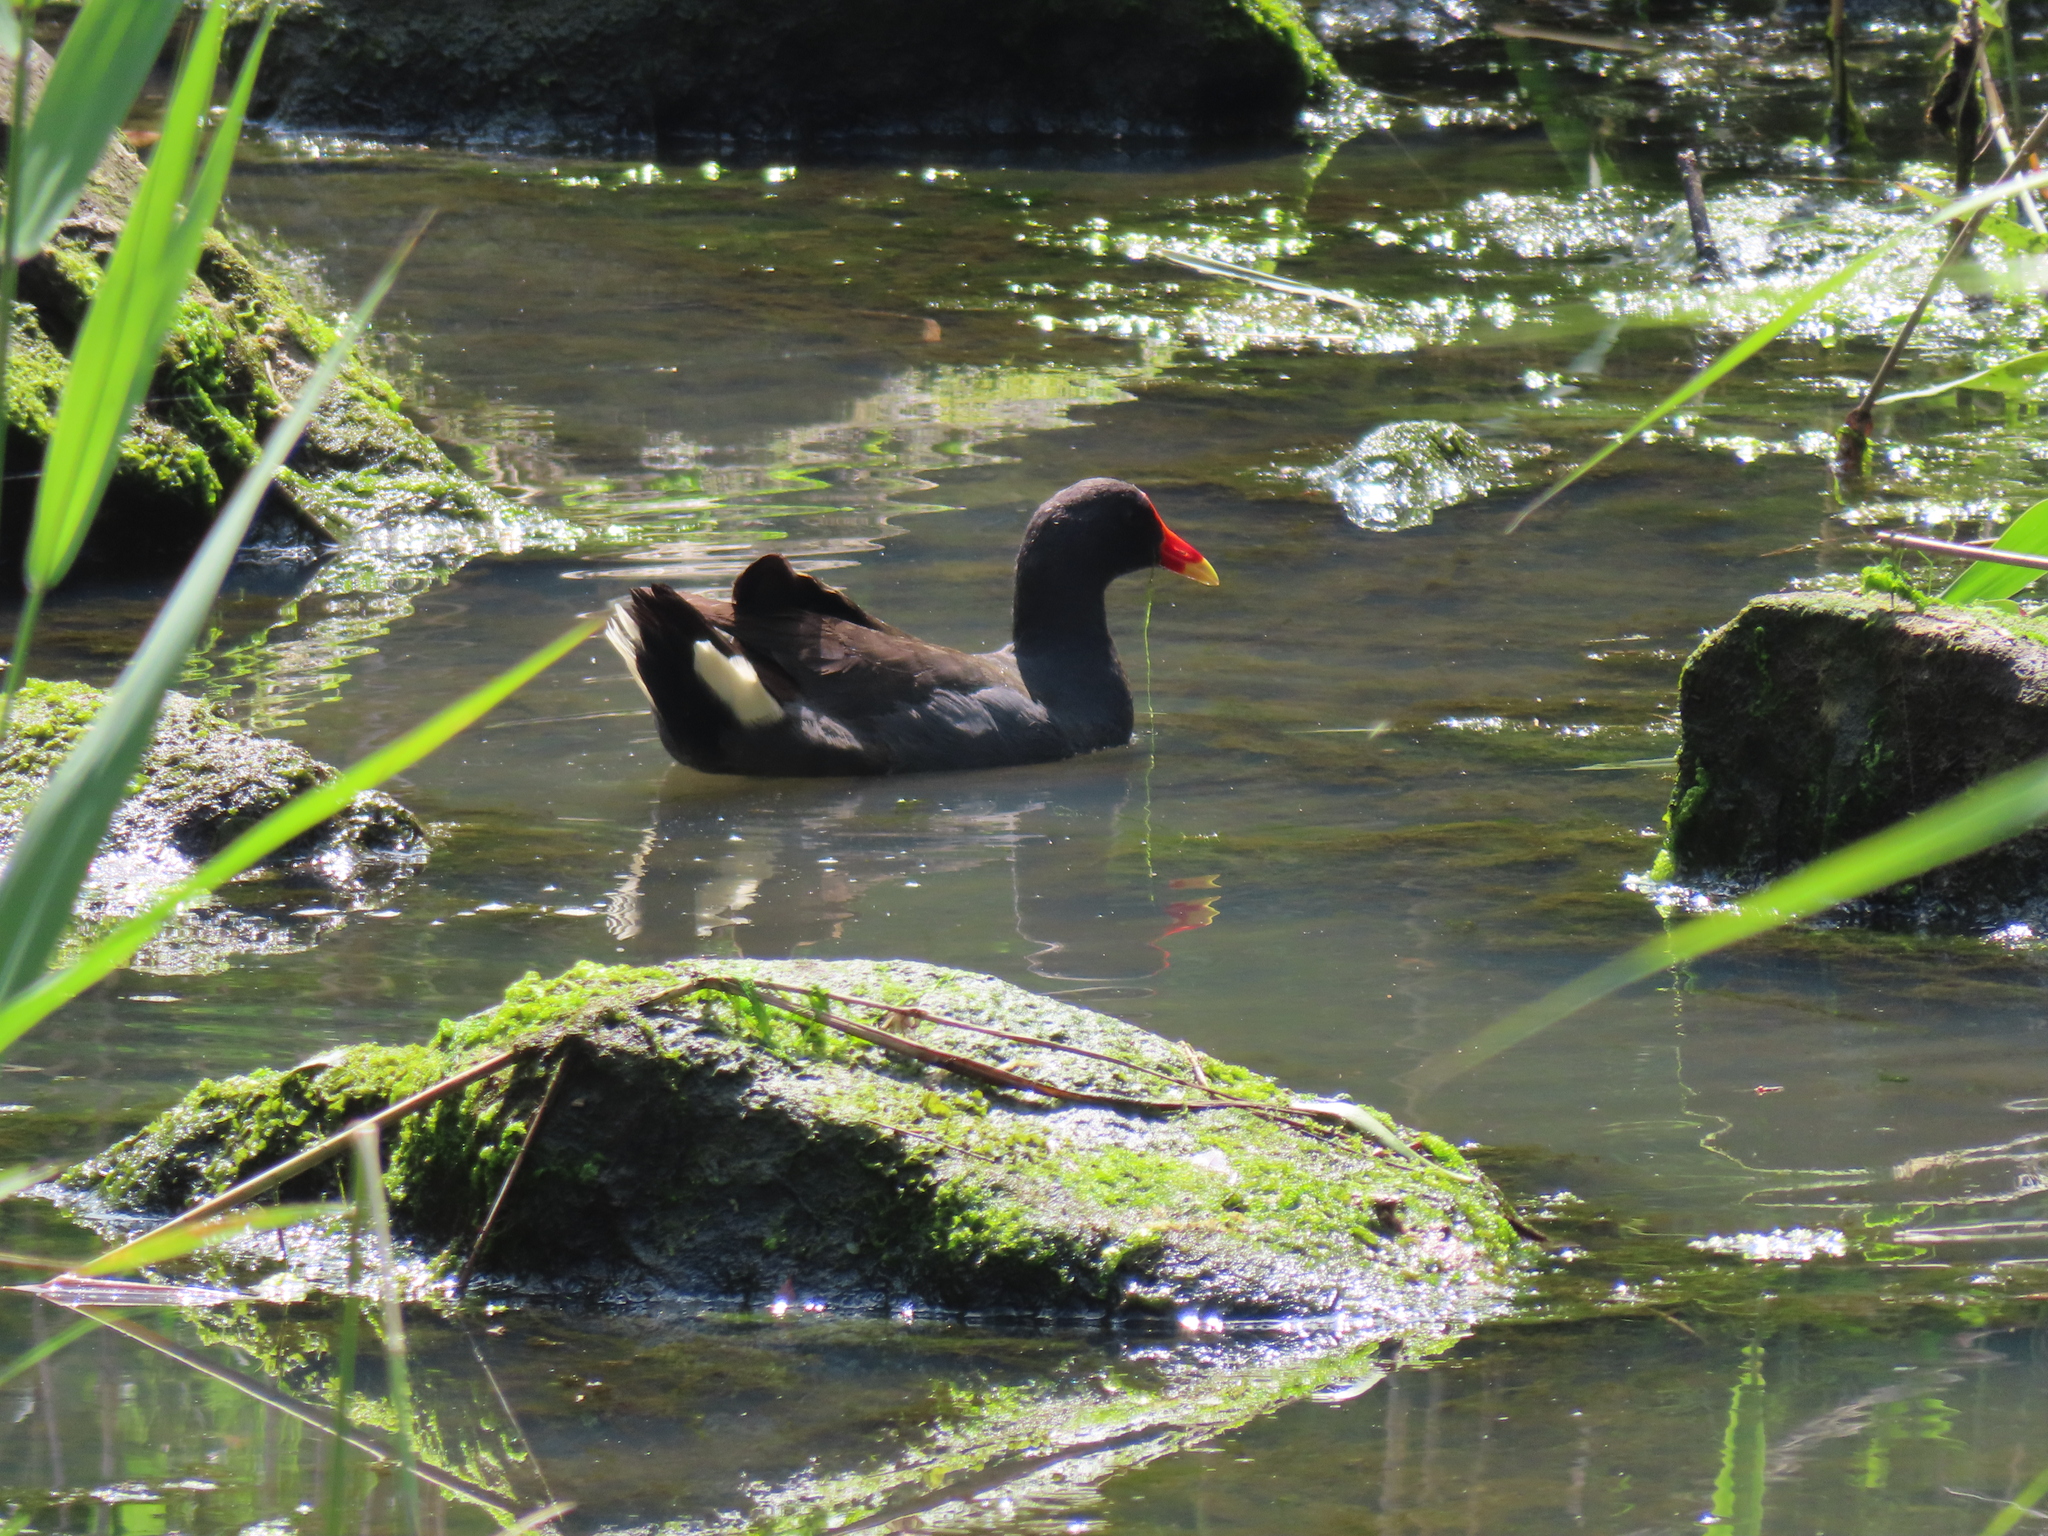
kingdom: Animalia
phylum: Chordata
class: Aves
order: Gruiformes
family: Rallidae
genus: Gallinula
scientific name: Gallinula tenebrosa
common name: Dusky moorhen
